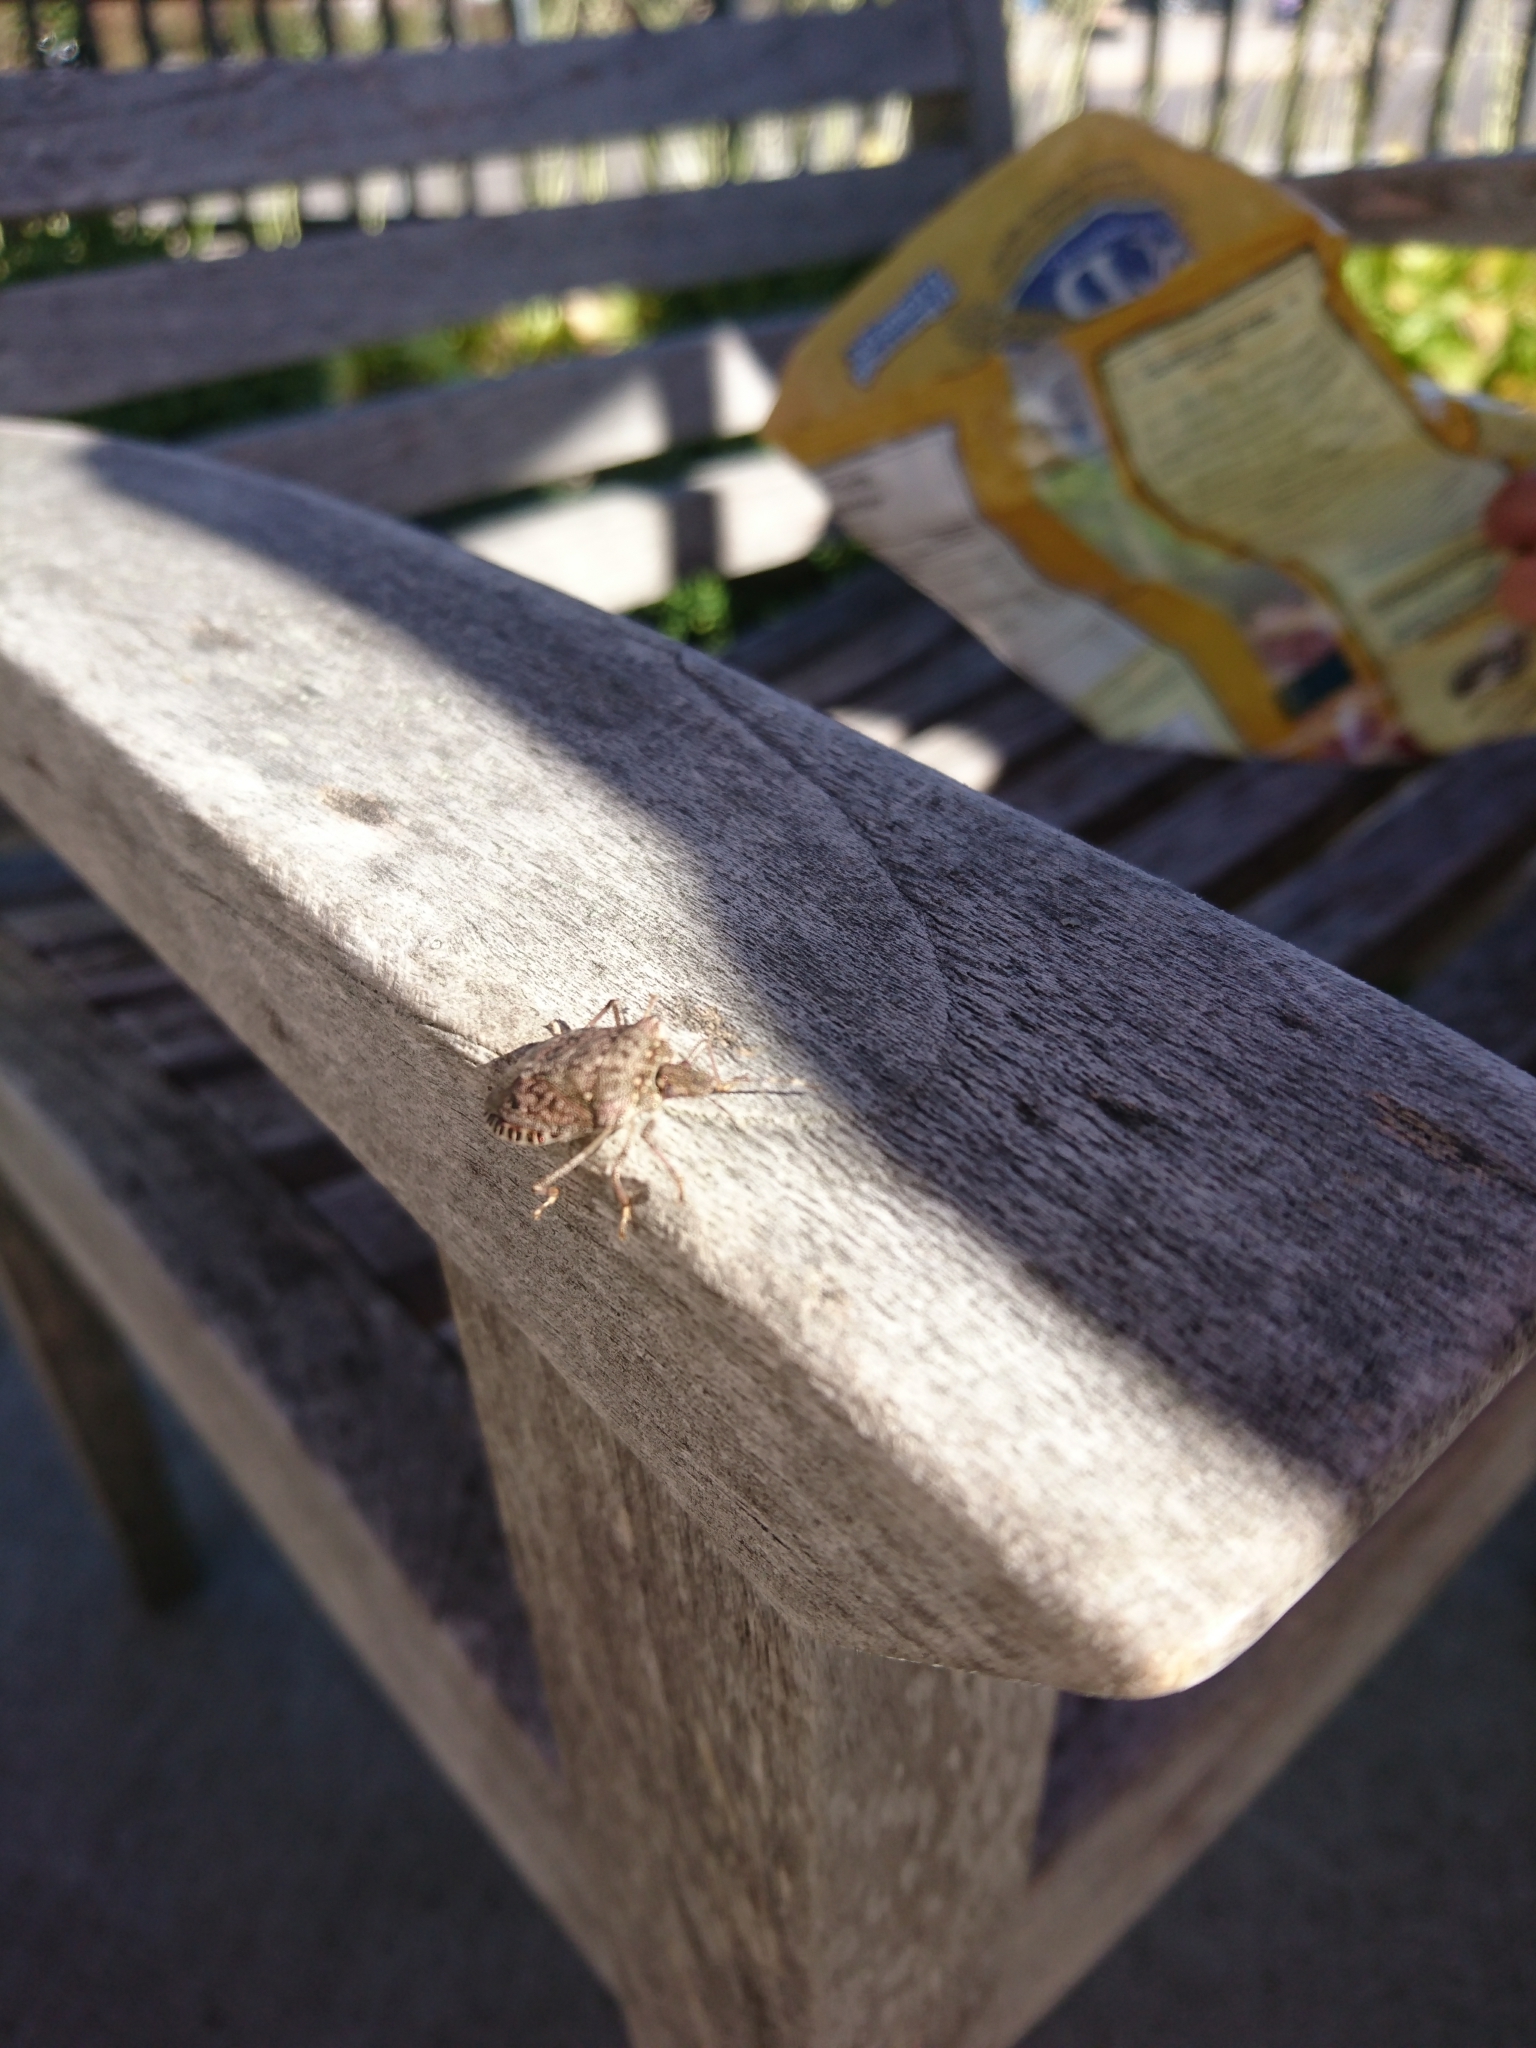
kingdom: Animalia
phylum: Arthropoda
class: Insecta
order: Hemiptera
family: Pentatomidae
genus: Halyomorpha
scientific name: Halyomorpha halys
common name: Brown marmorated stink bug
